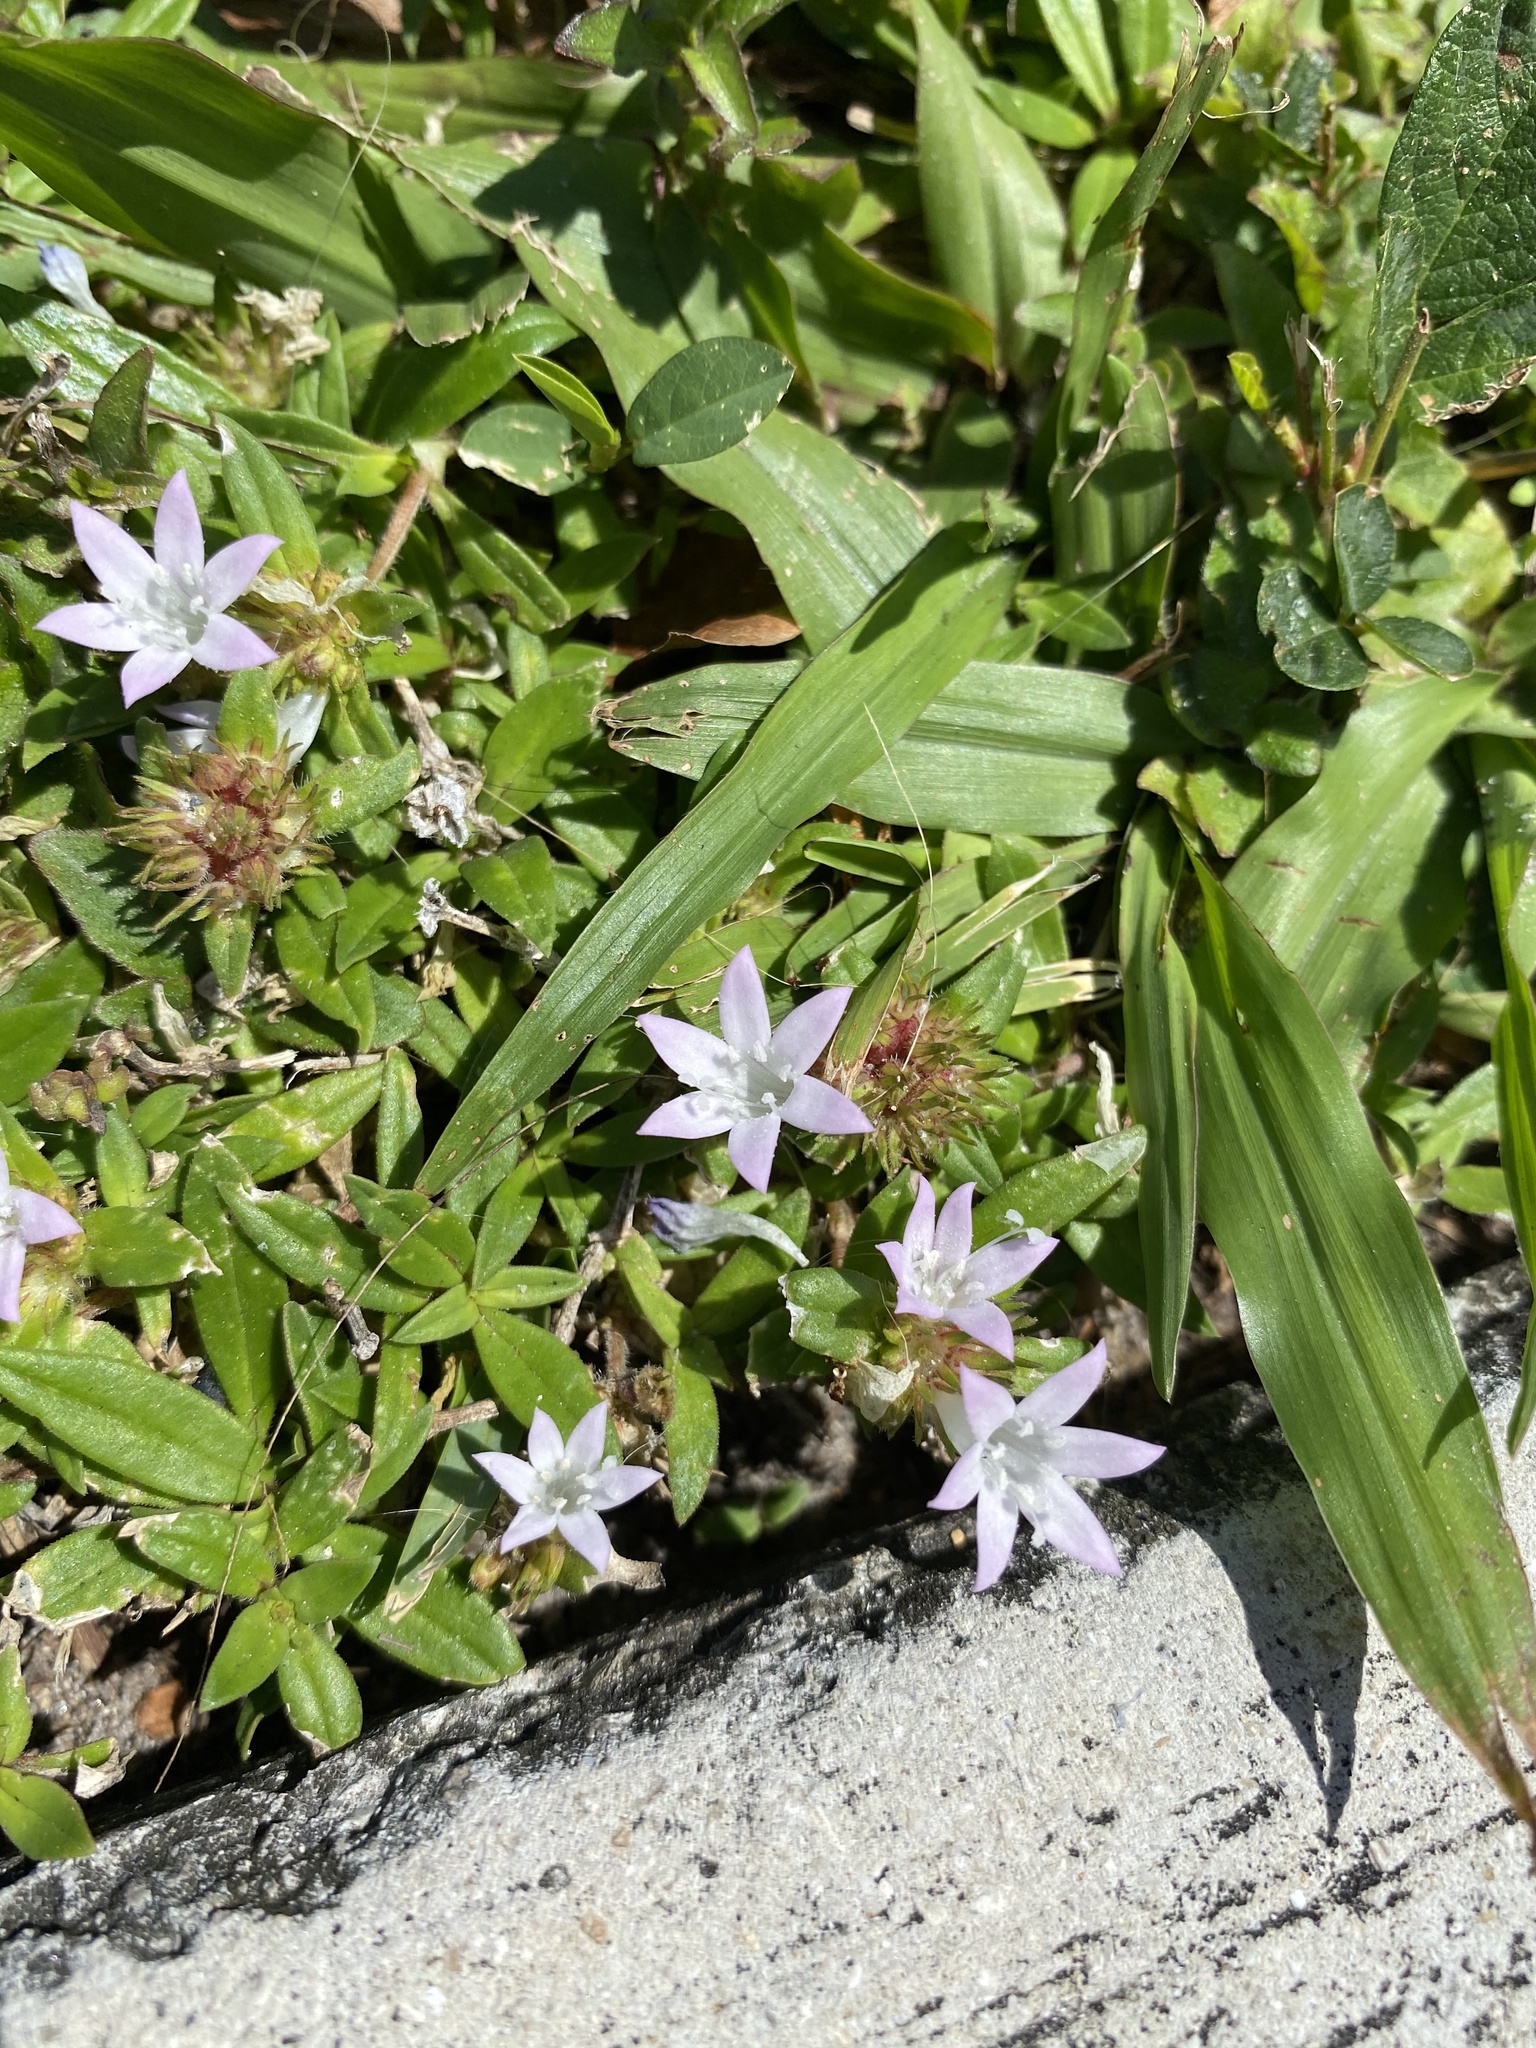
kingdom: Plantae
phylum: Tracheophyta
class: Magnoliopsida
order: Gentianales
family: Rubiaceae
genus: Richardia
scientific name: Richardia grandiflora
